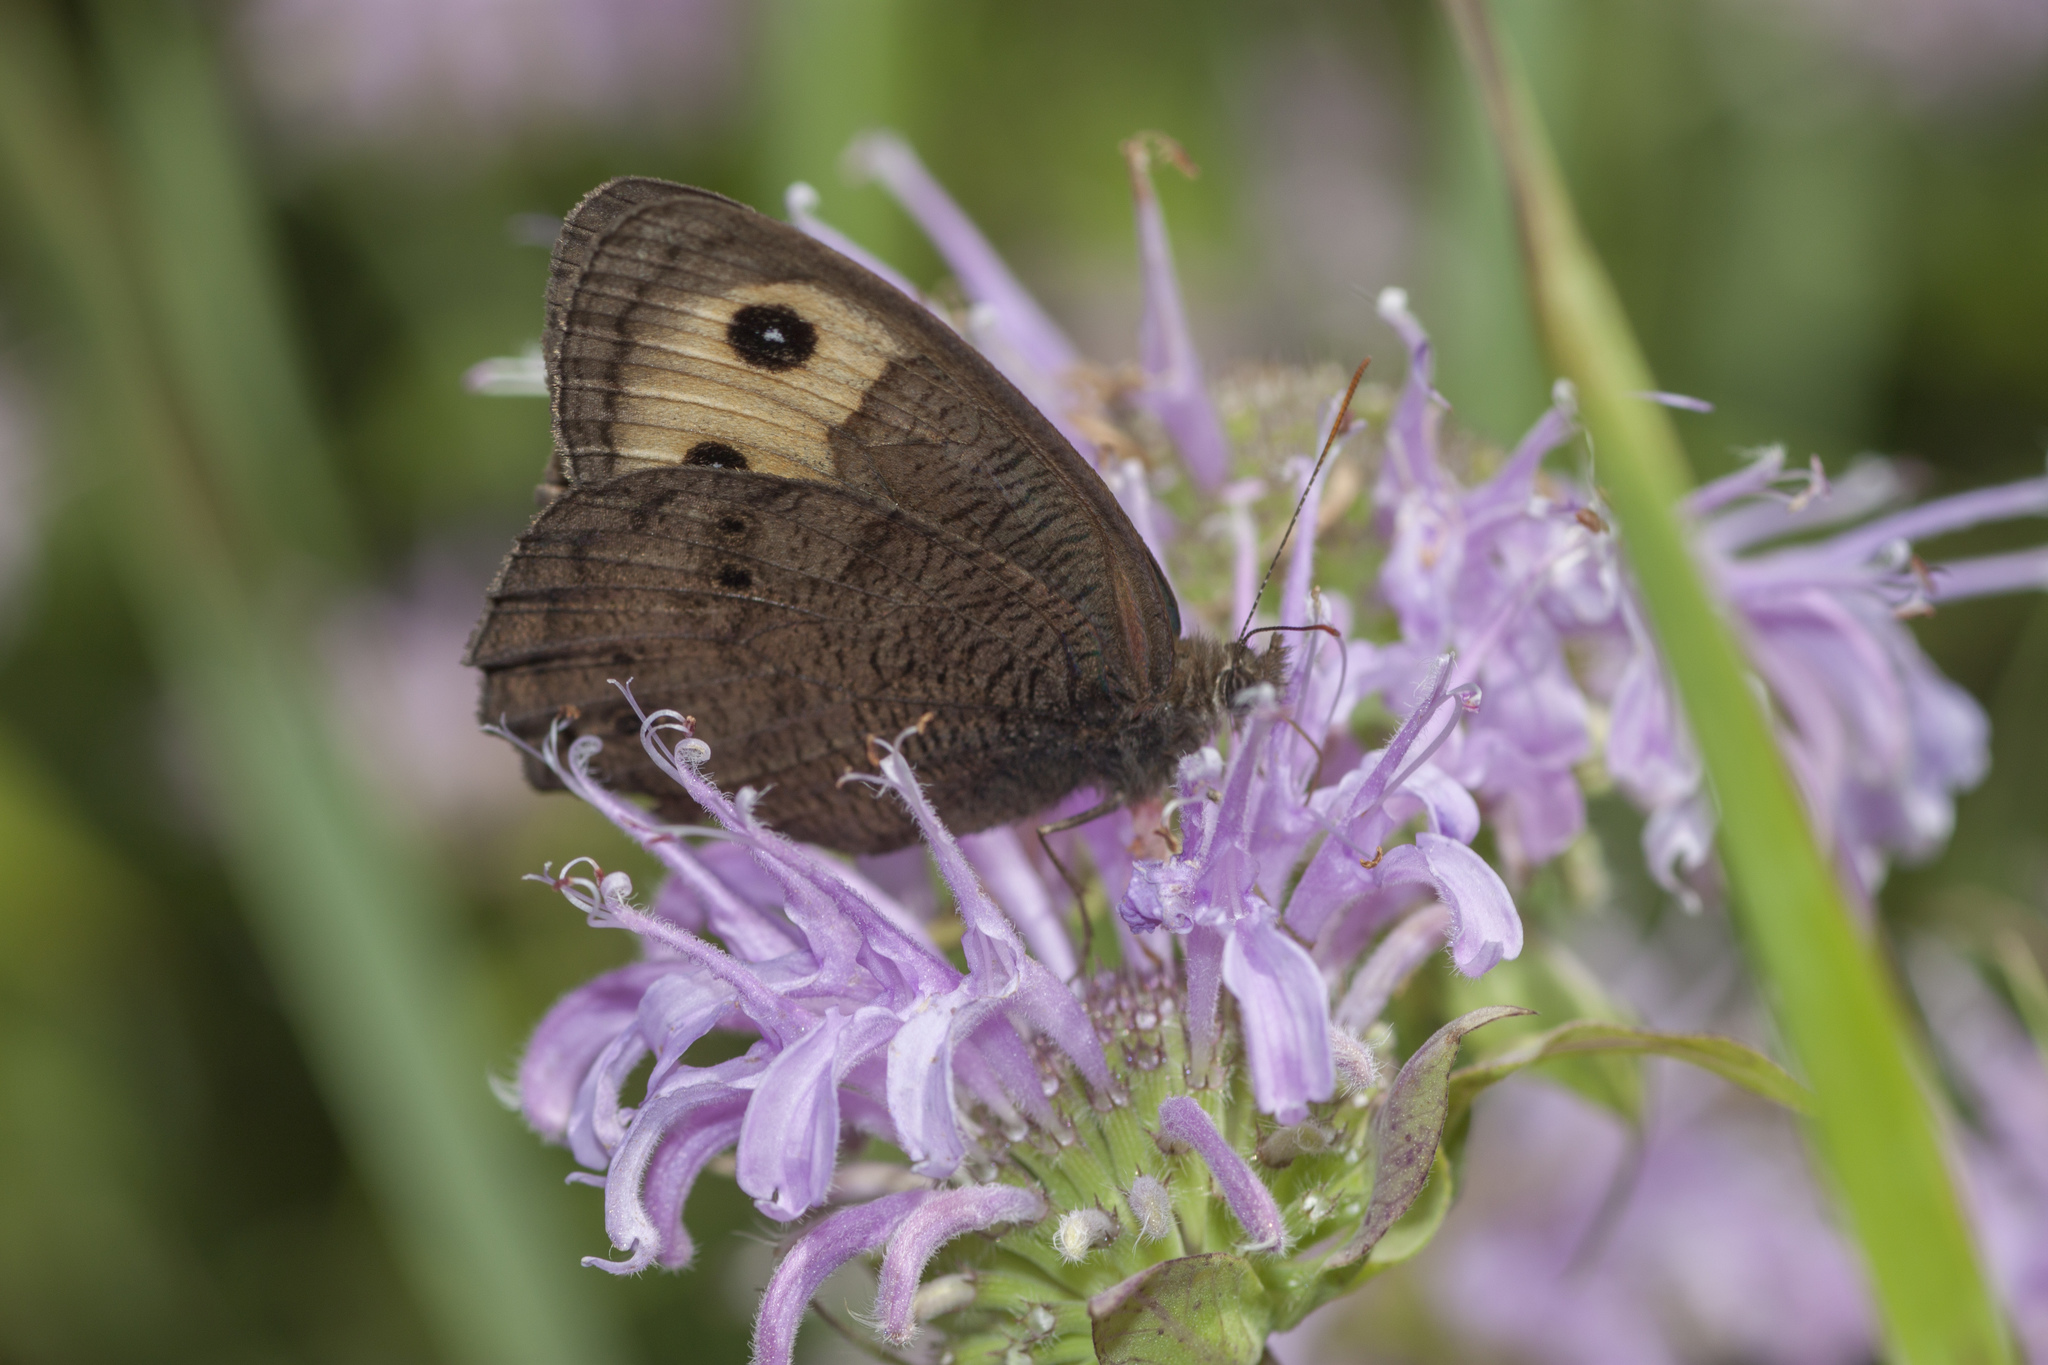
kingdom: Animalia
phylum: Arthropoda
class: Insecta
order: Lepidoptera
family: Nymphalidae
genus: Cercyonis
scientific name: Cercyonis pegala
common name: Common wood-nymph
